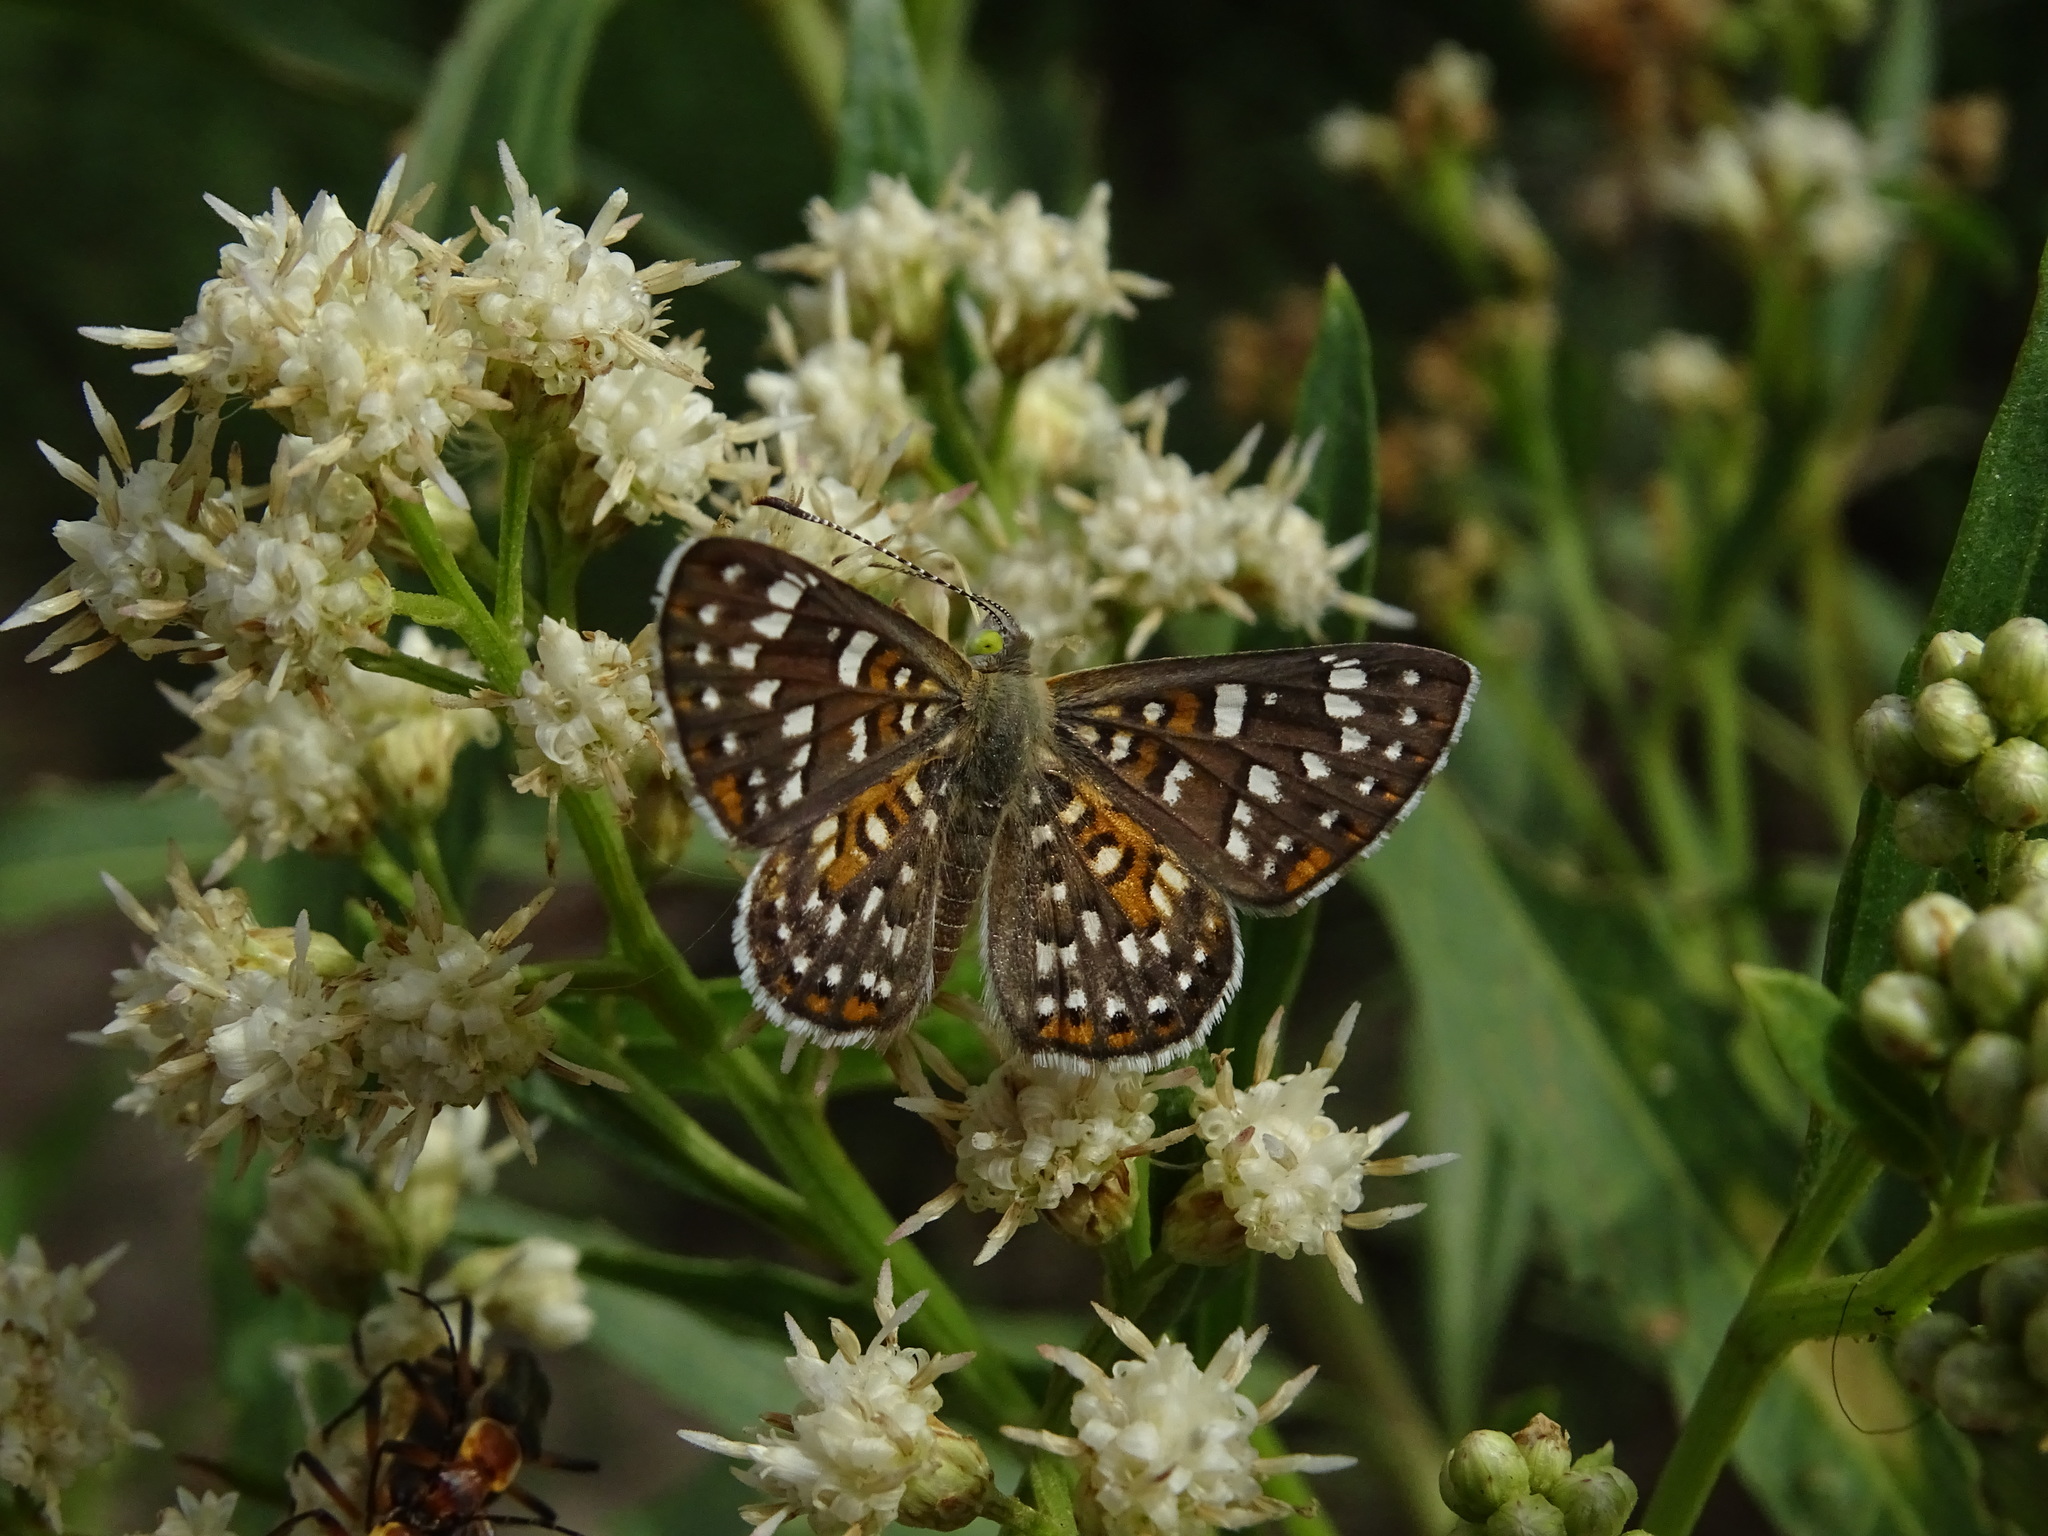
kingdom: Animalia
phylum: Arthropoda
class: Insecta
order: Lepidoptera
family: Riodinidae
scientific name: Riodinidae
